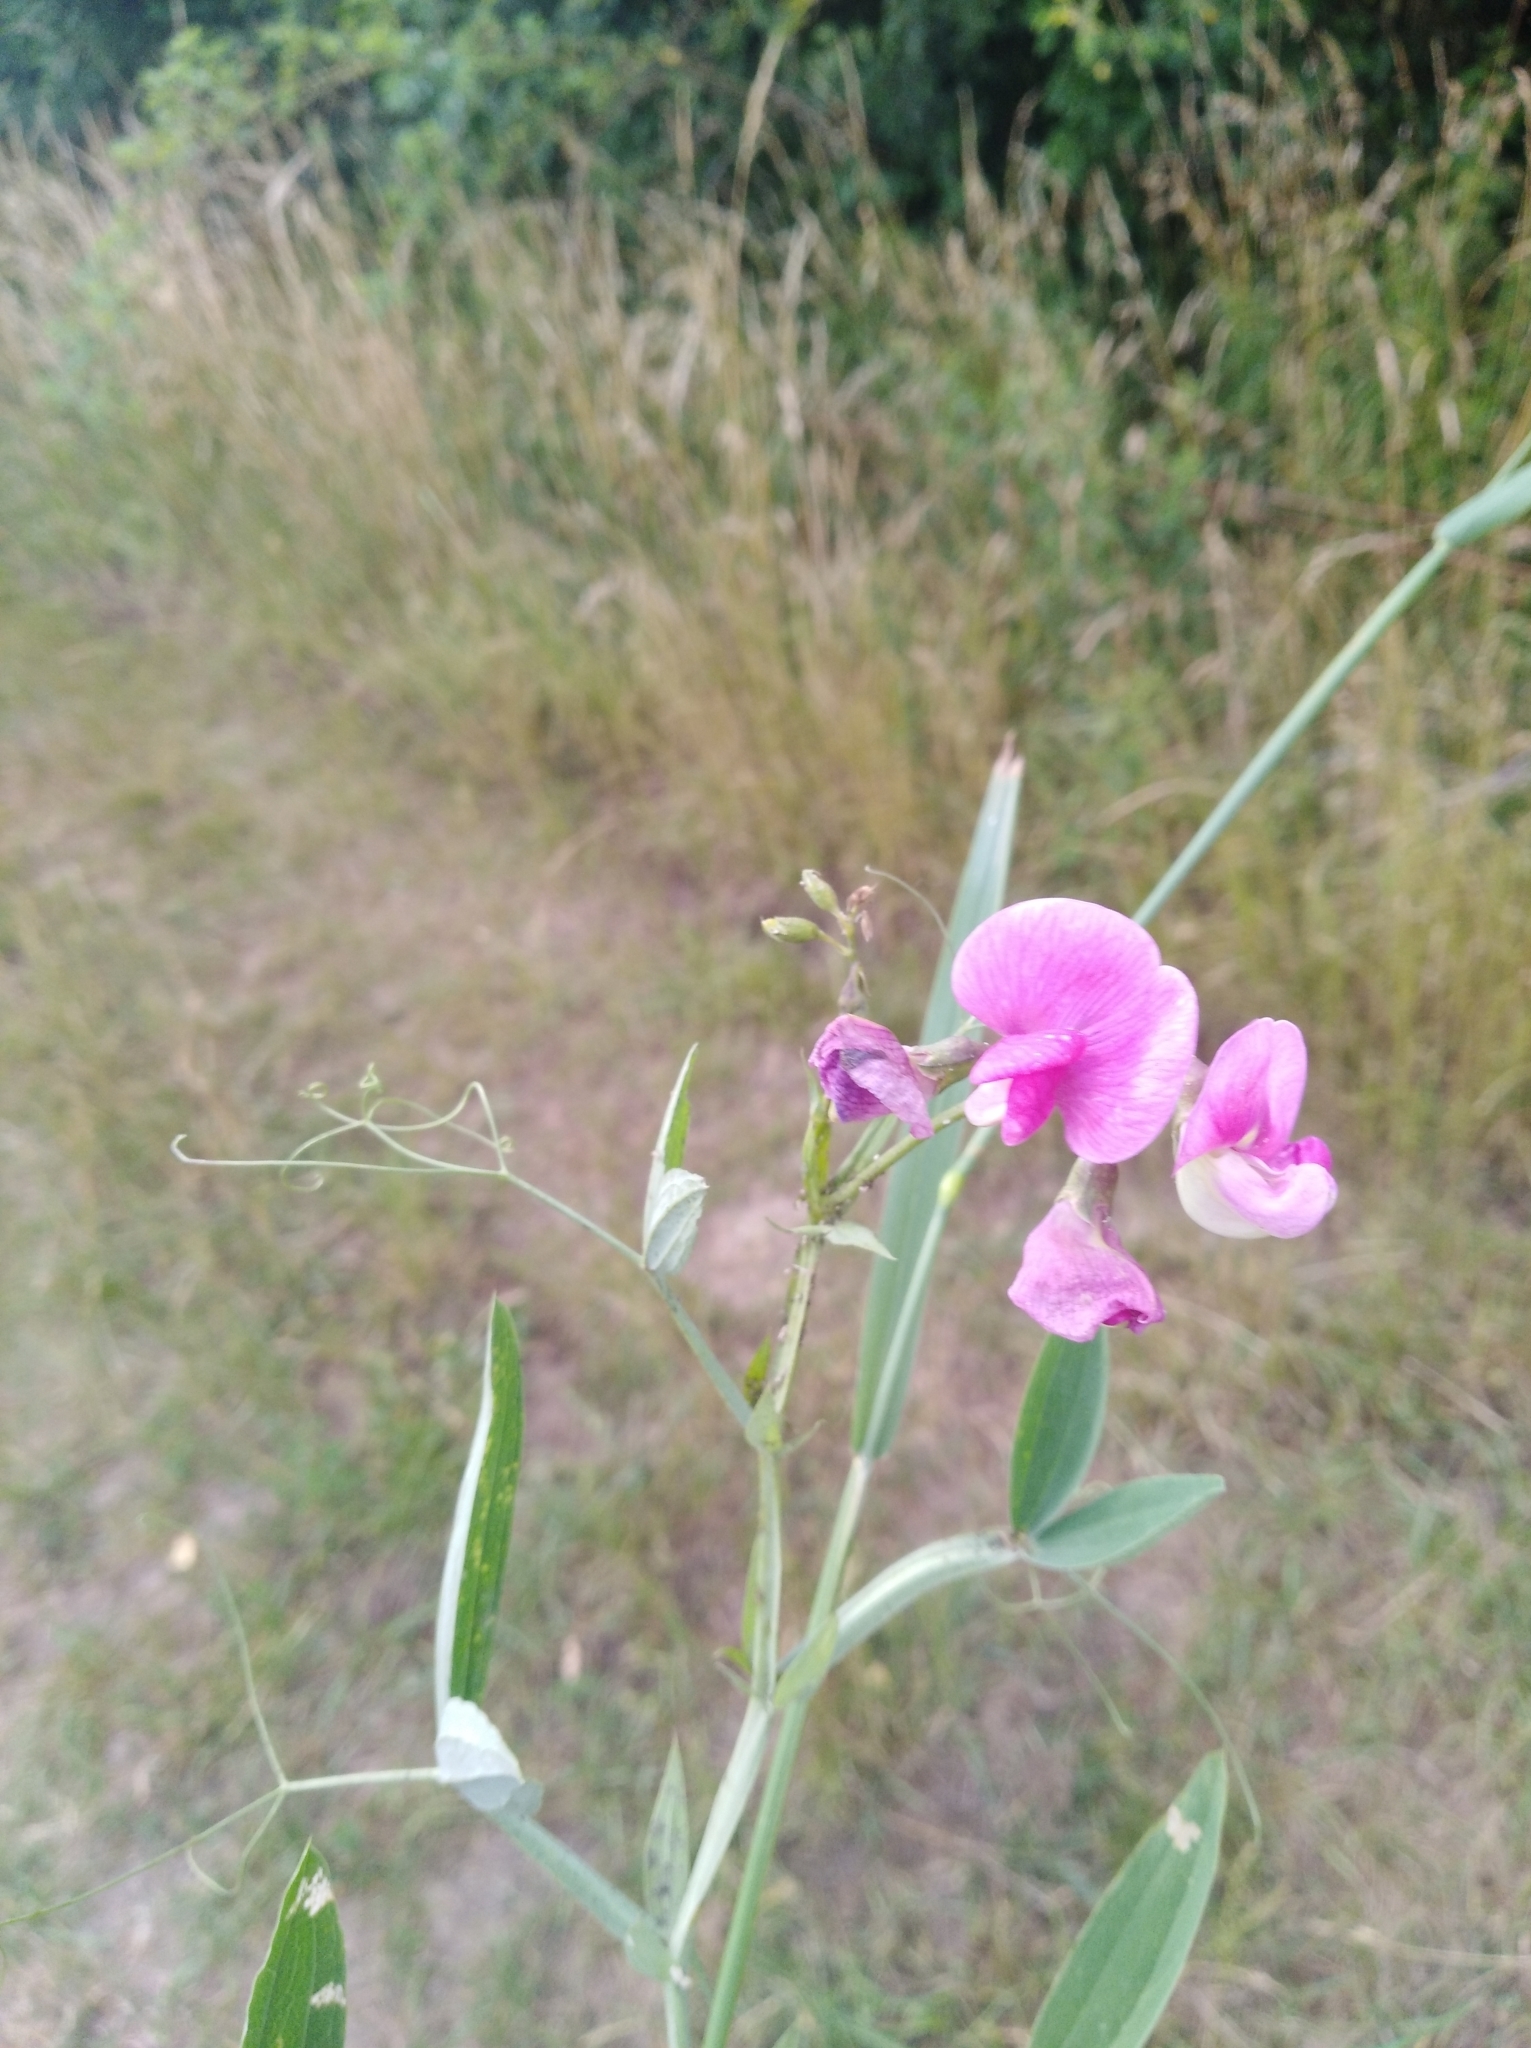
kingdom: Plantae
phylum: Tracheophyta
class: Magnoliopsida
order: Fabales
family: Fabaceae
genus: Lathyrus
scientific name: Lathyrus latifolius
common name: Perennial pea
